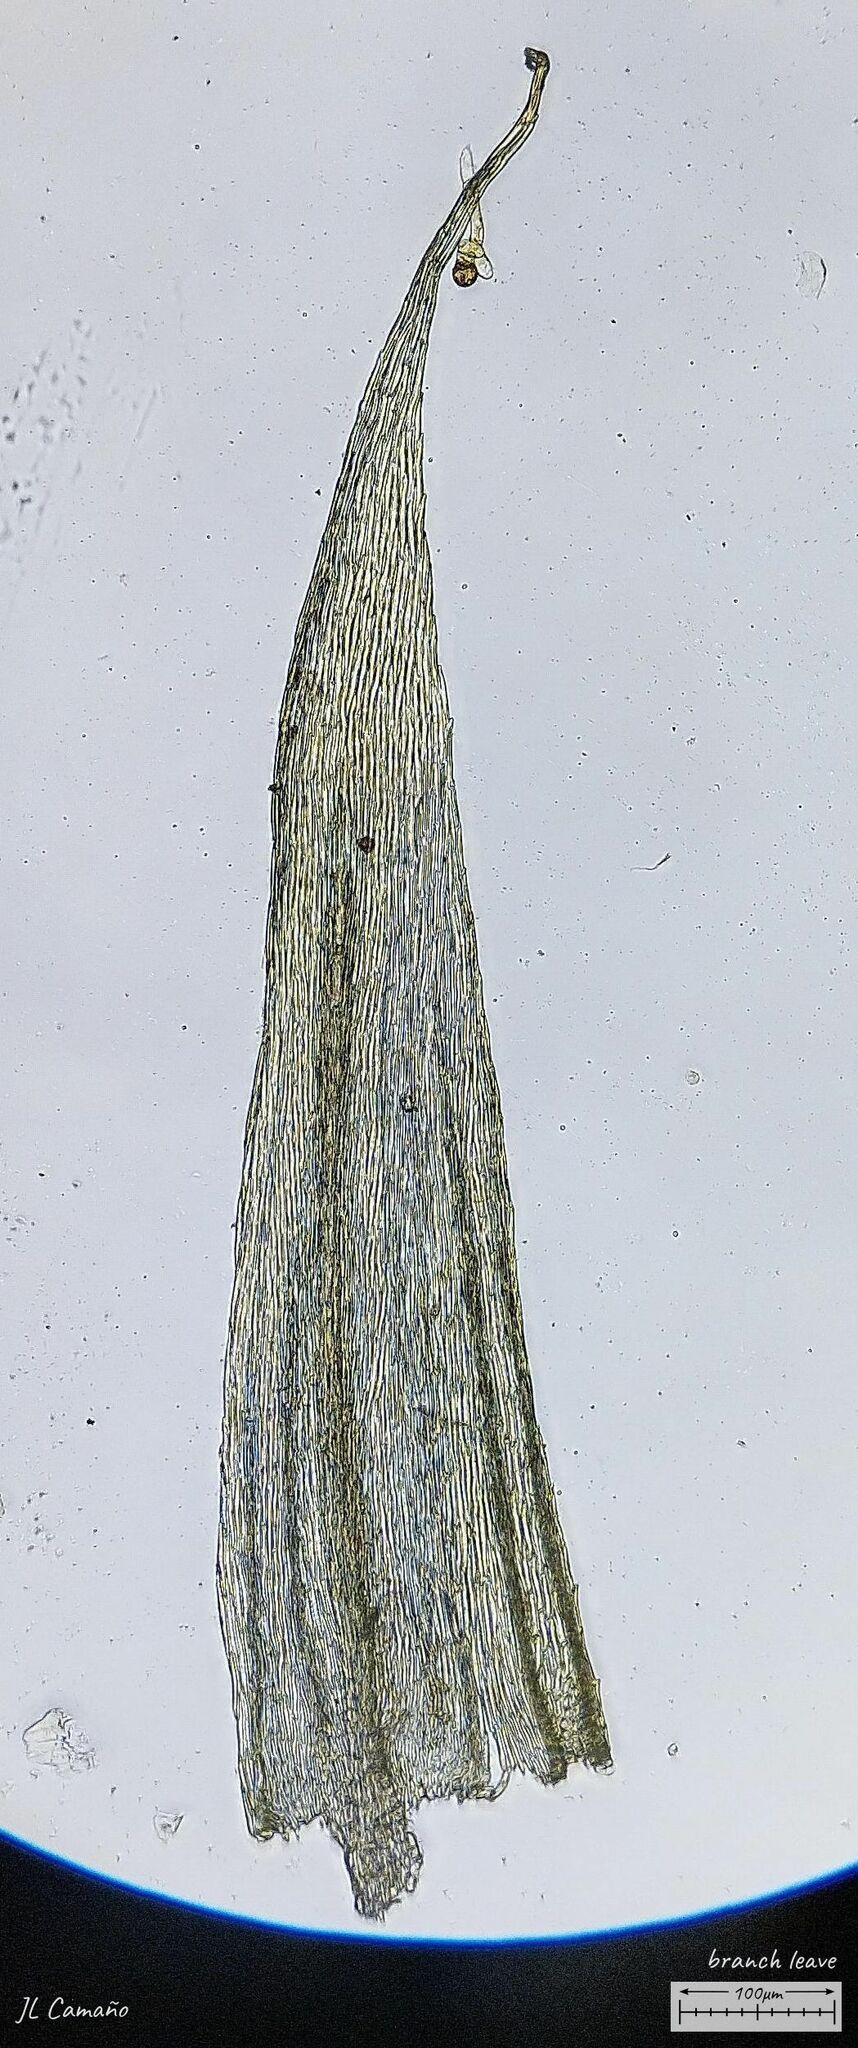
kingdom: Plantae
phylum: Bryophyta
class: Bryopsida
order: Hypnales
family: Brachytheciaceae
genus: Homalothecium
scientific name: Homalothecium sericeum
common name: Silky wall feather-moss
